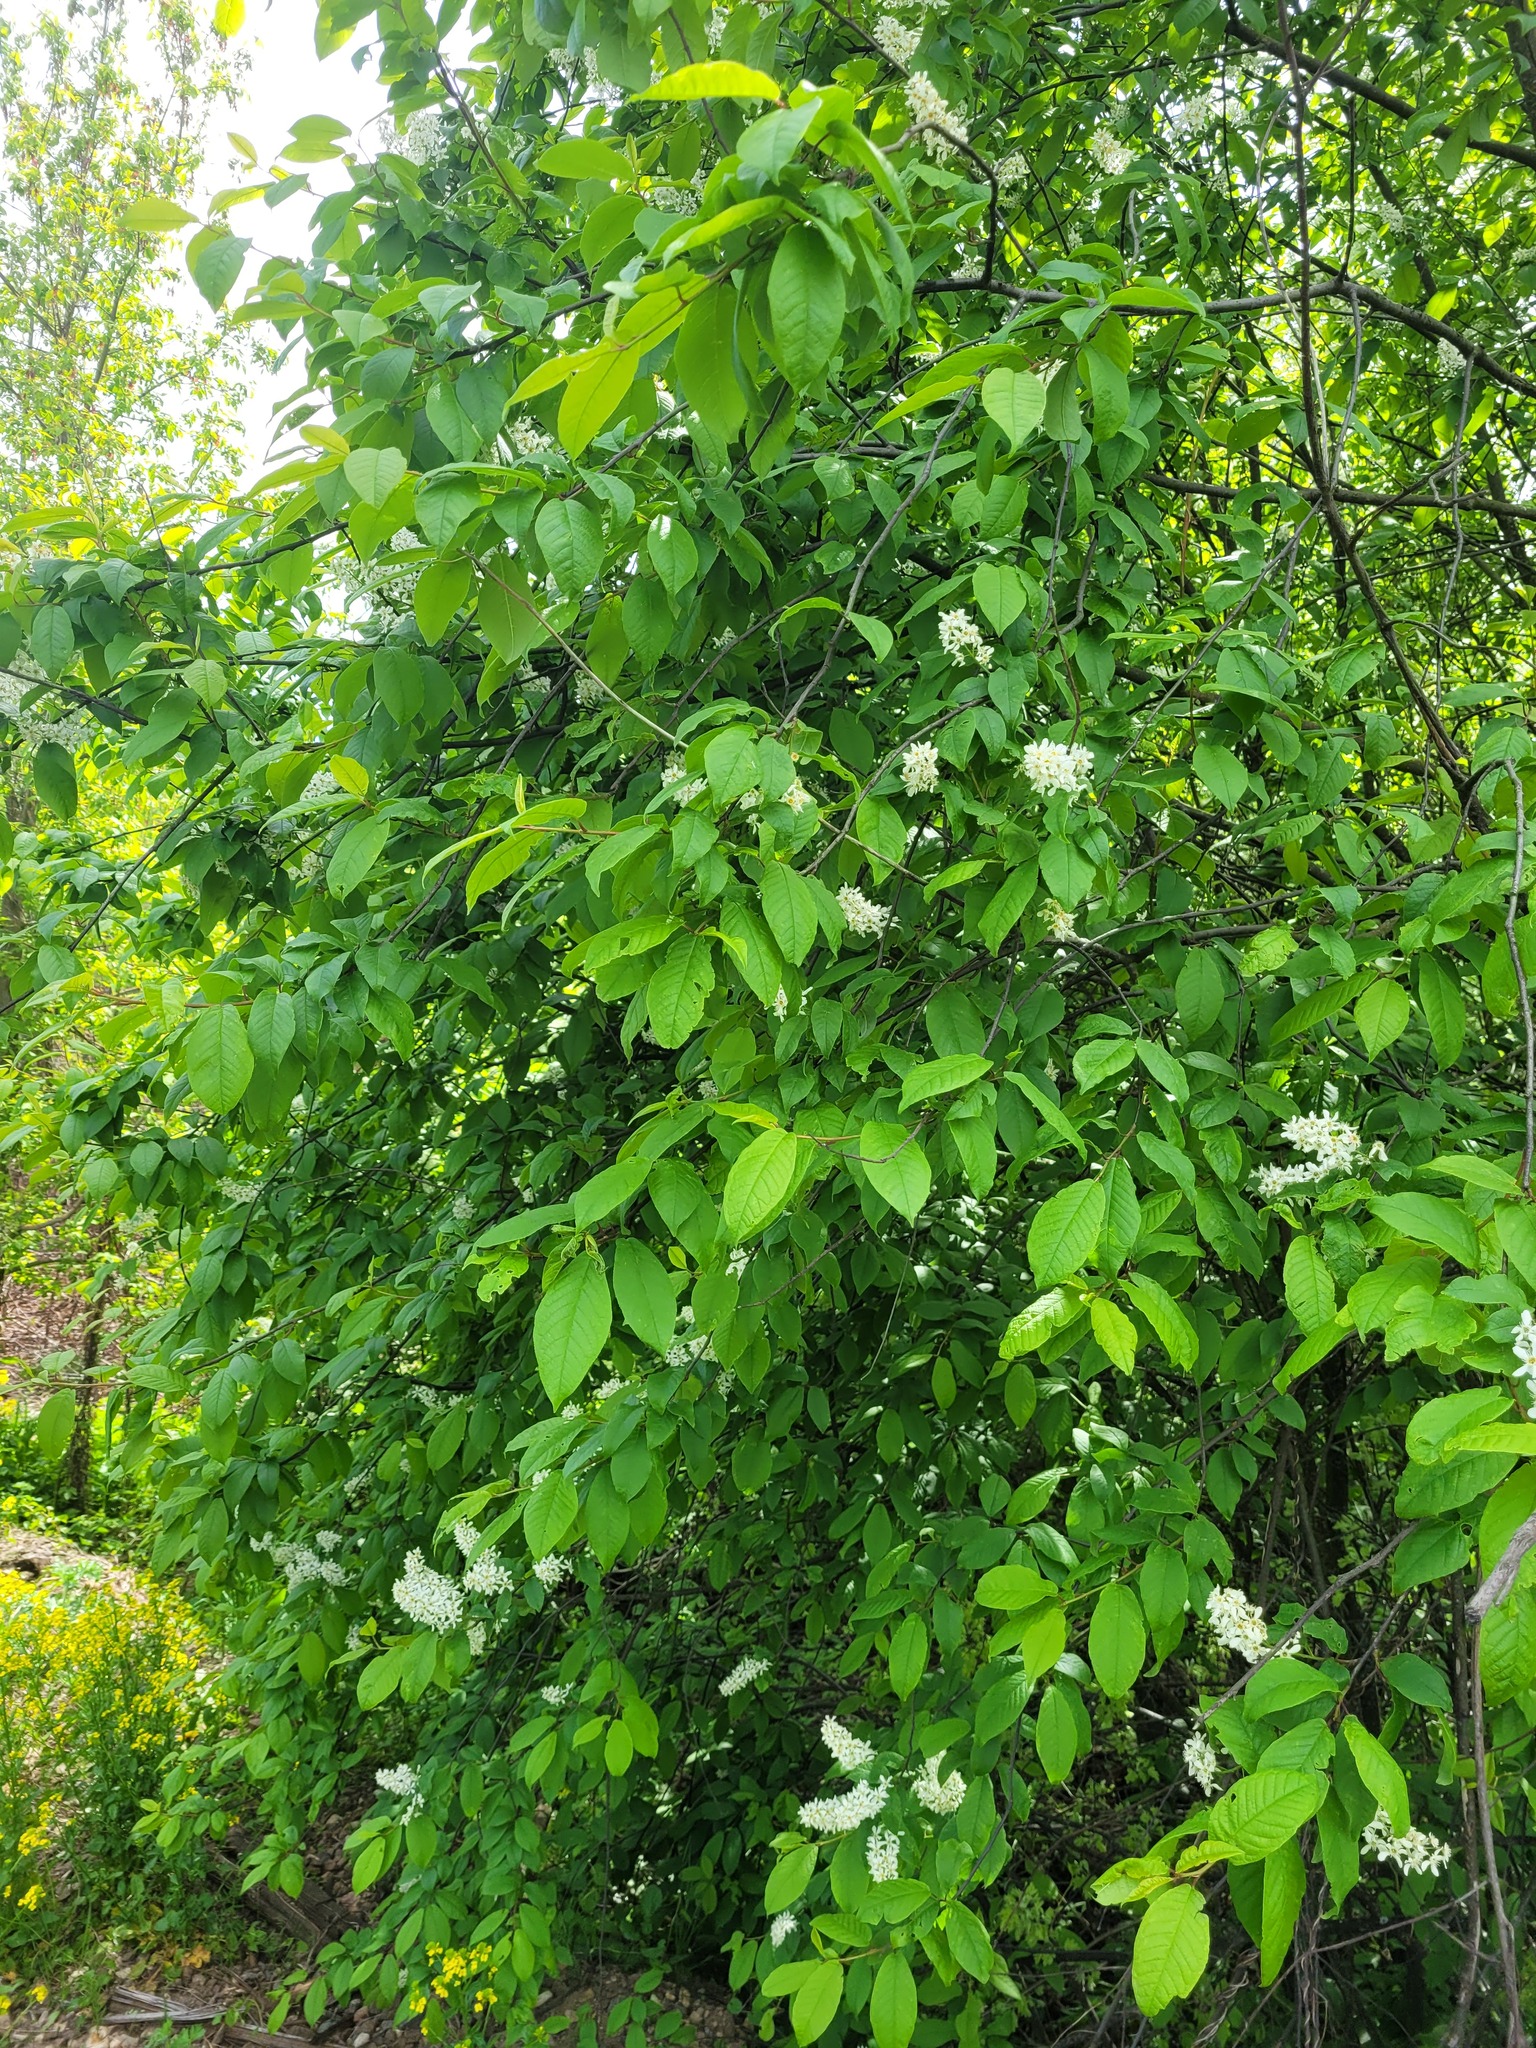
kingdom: Plantae
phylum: Tracheophyta
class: Magnoliopsida
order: Rosales
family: Rosaceae
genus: Prunus
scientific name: Prunus padus
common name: Bird cherry
